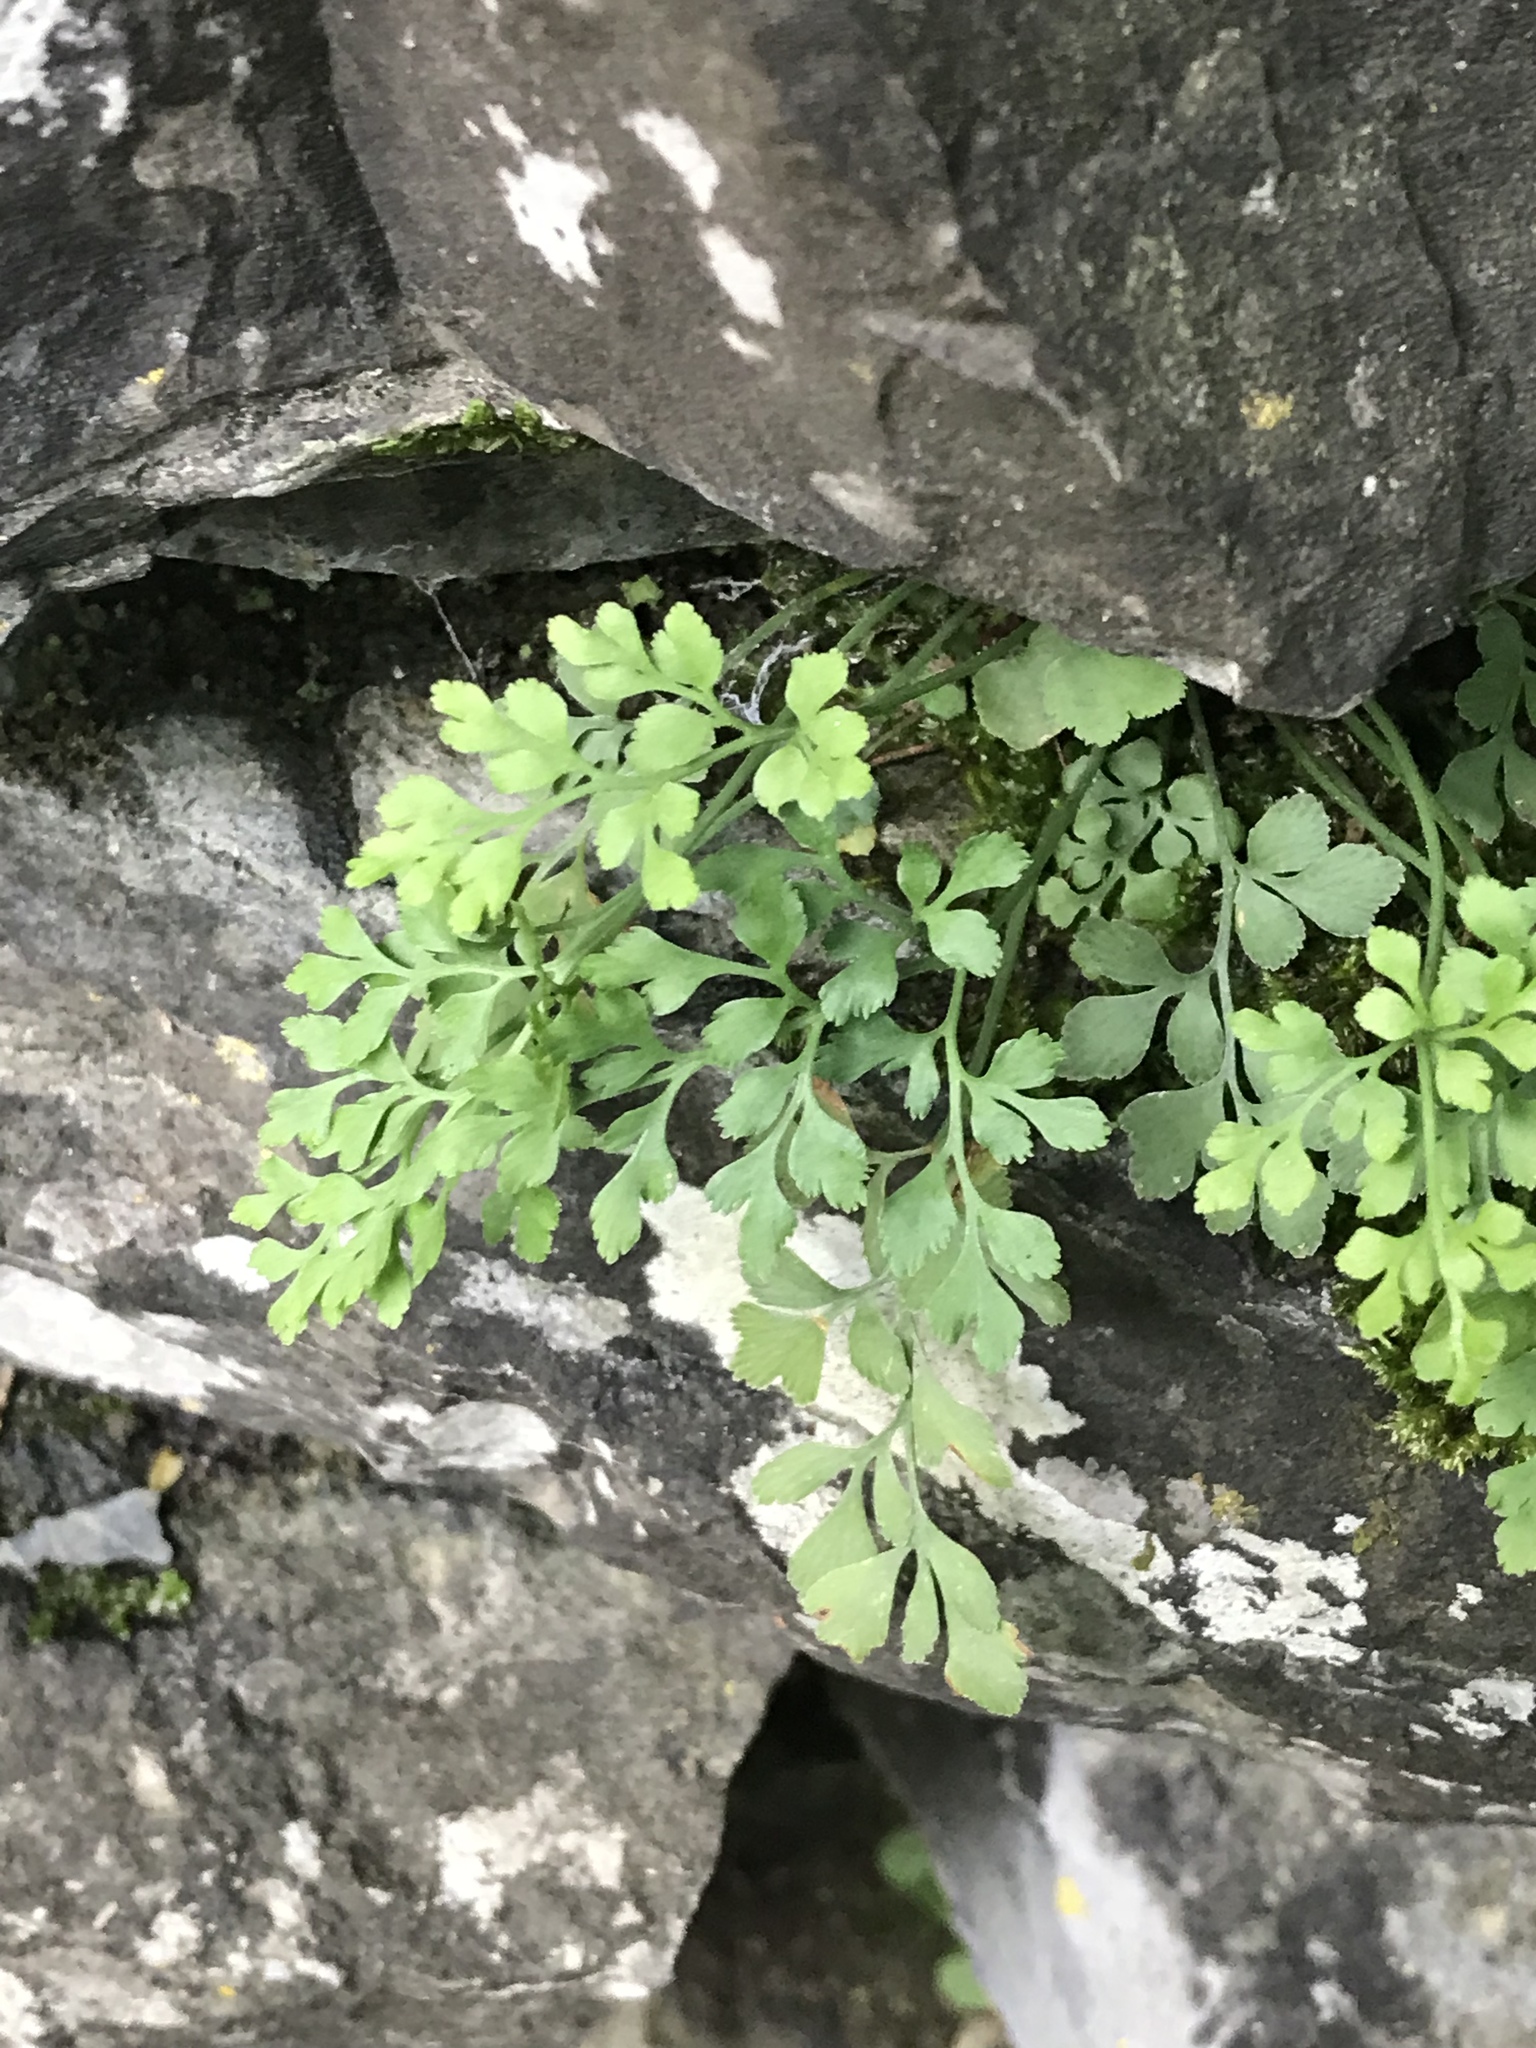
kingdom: Plantae
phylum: Tracheophyta
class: Polypodiopsida
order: Polypodiales
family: Aspleniaceae
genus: Asplenium
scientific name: Asplenium ruta-muraria
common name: Wall-rue
